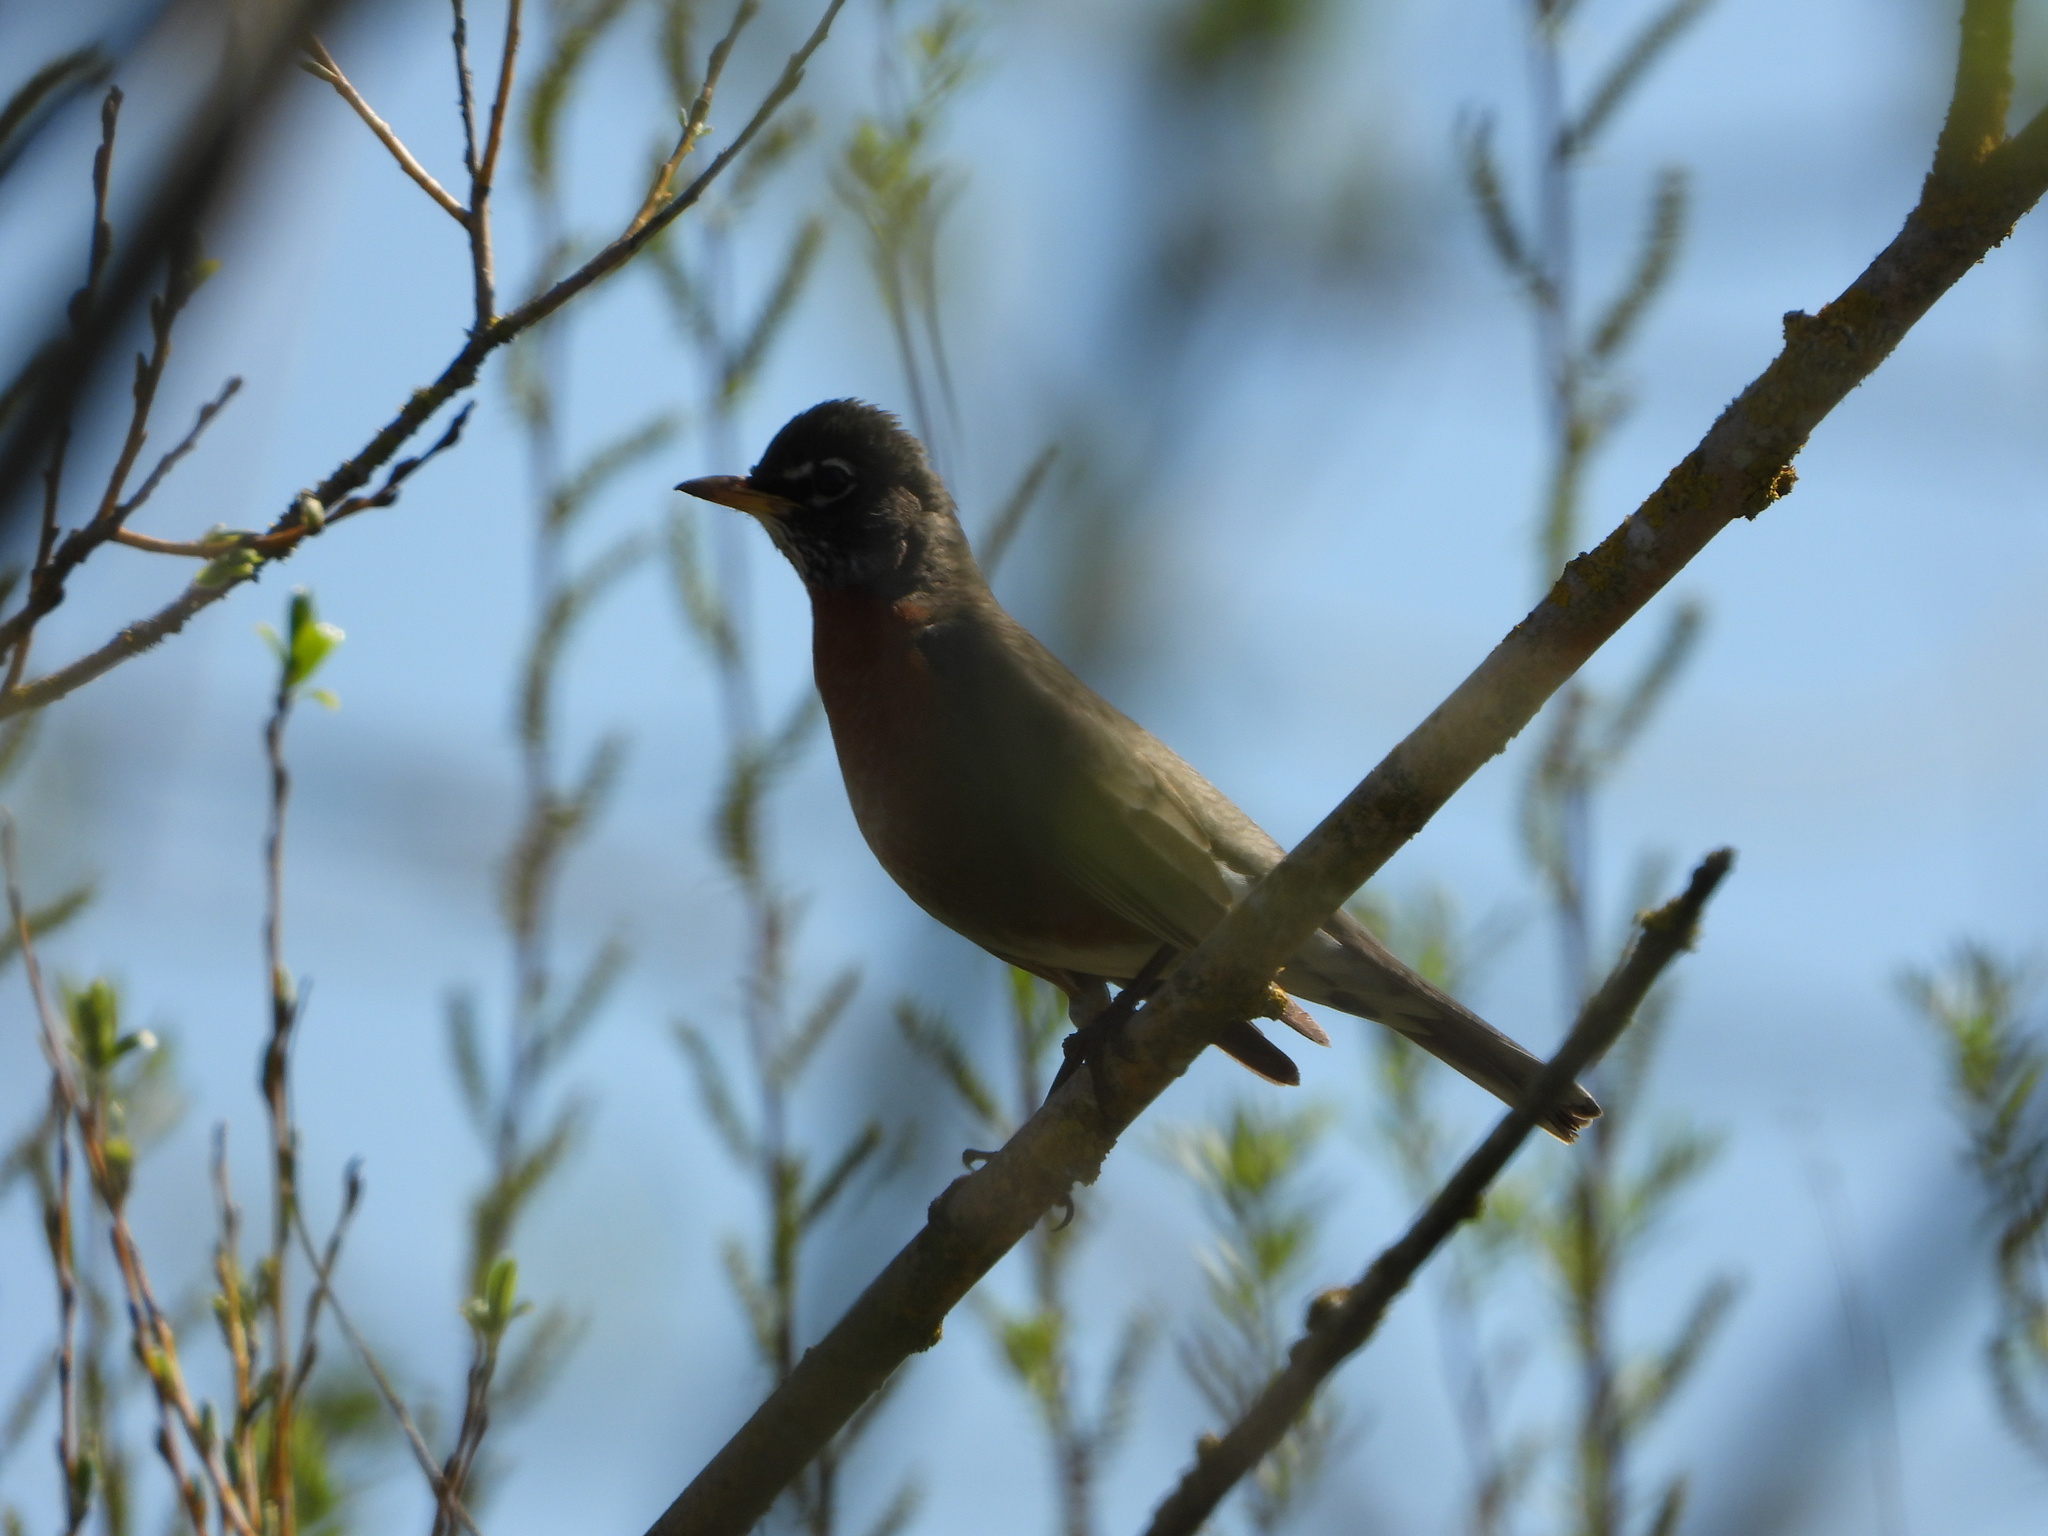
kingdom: Animalia
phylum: Chordata
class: Aves
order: Passeriformes
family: Turdidae
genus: Turdus
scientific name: Turdus migratorius
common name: American robin
